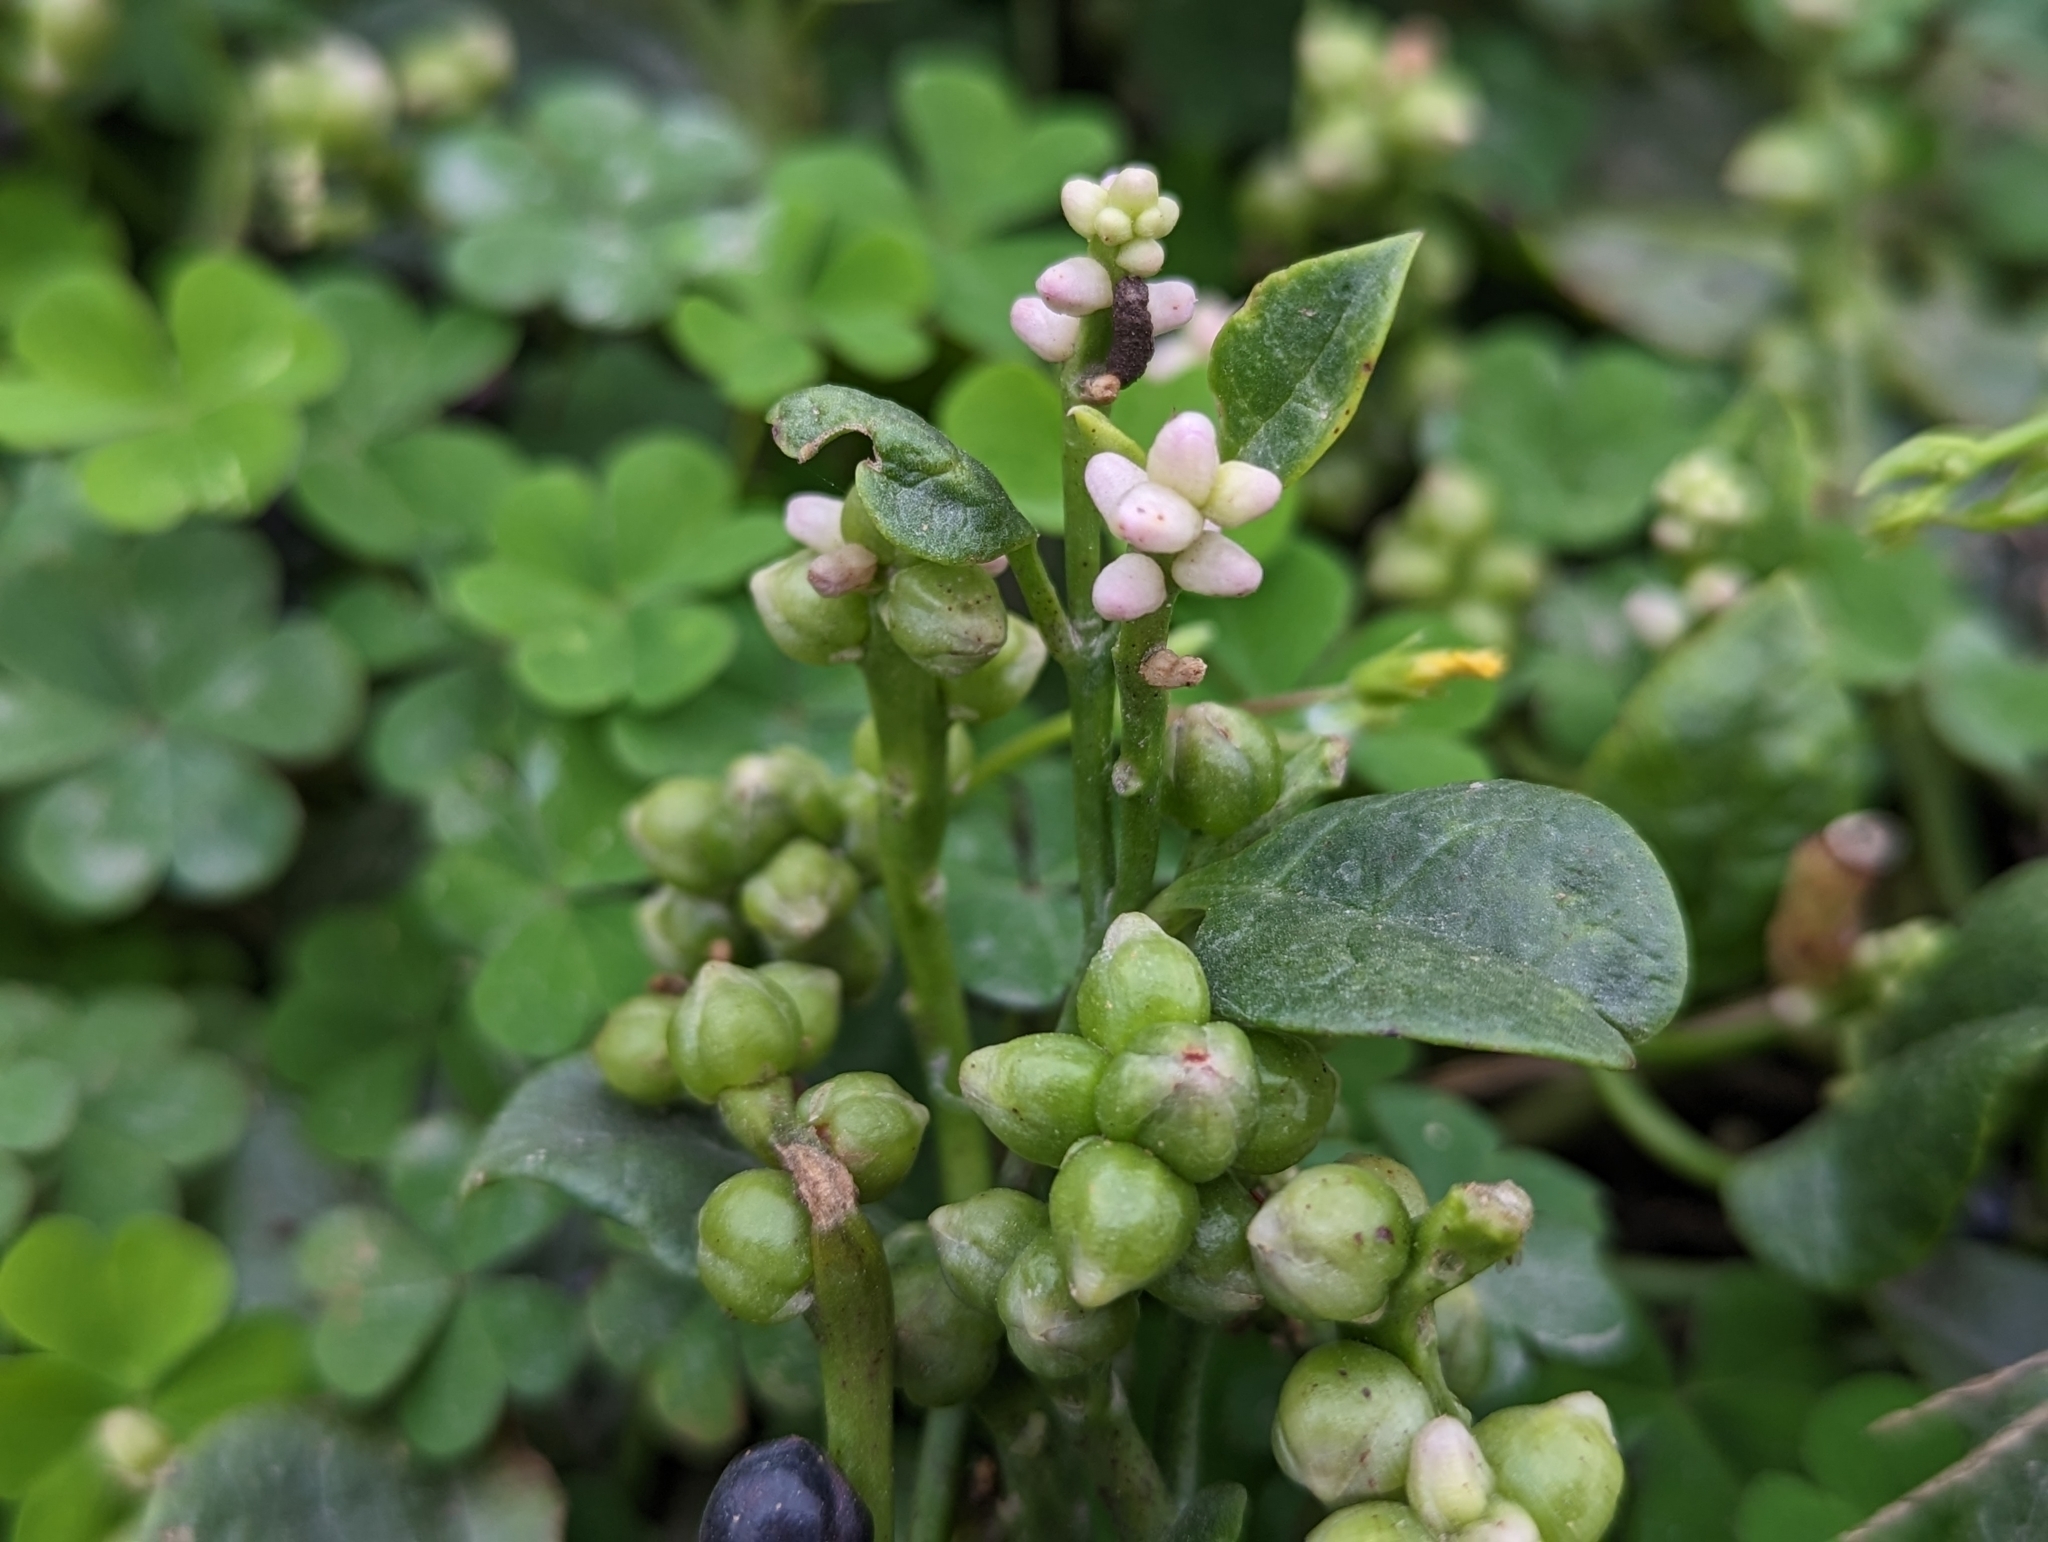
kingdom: Plantae
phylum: Tracheophyta
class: Magnoliopsida
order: Caryophyllales
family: Basellaceae
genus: Basella
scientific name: Basella alba
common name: Indian spinach
